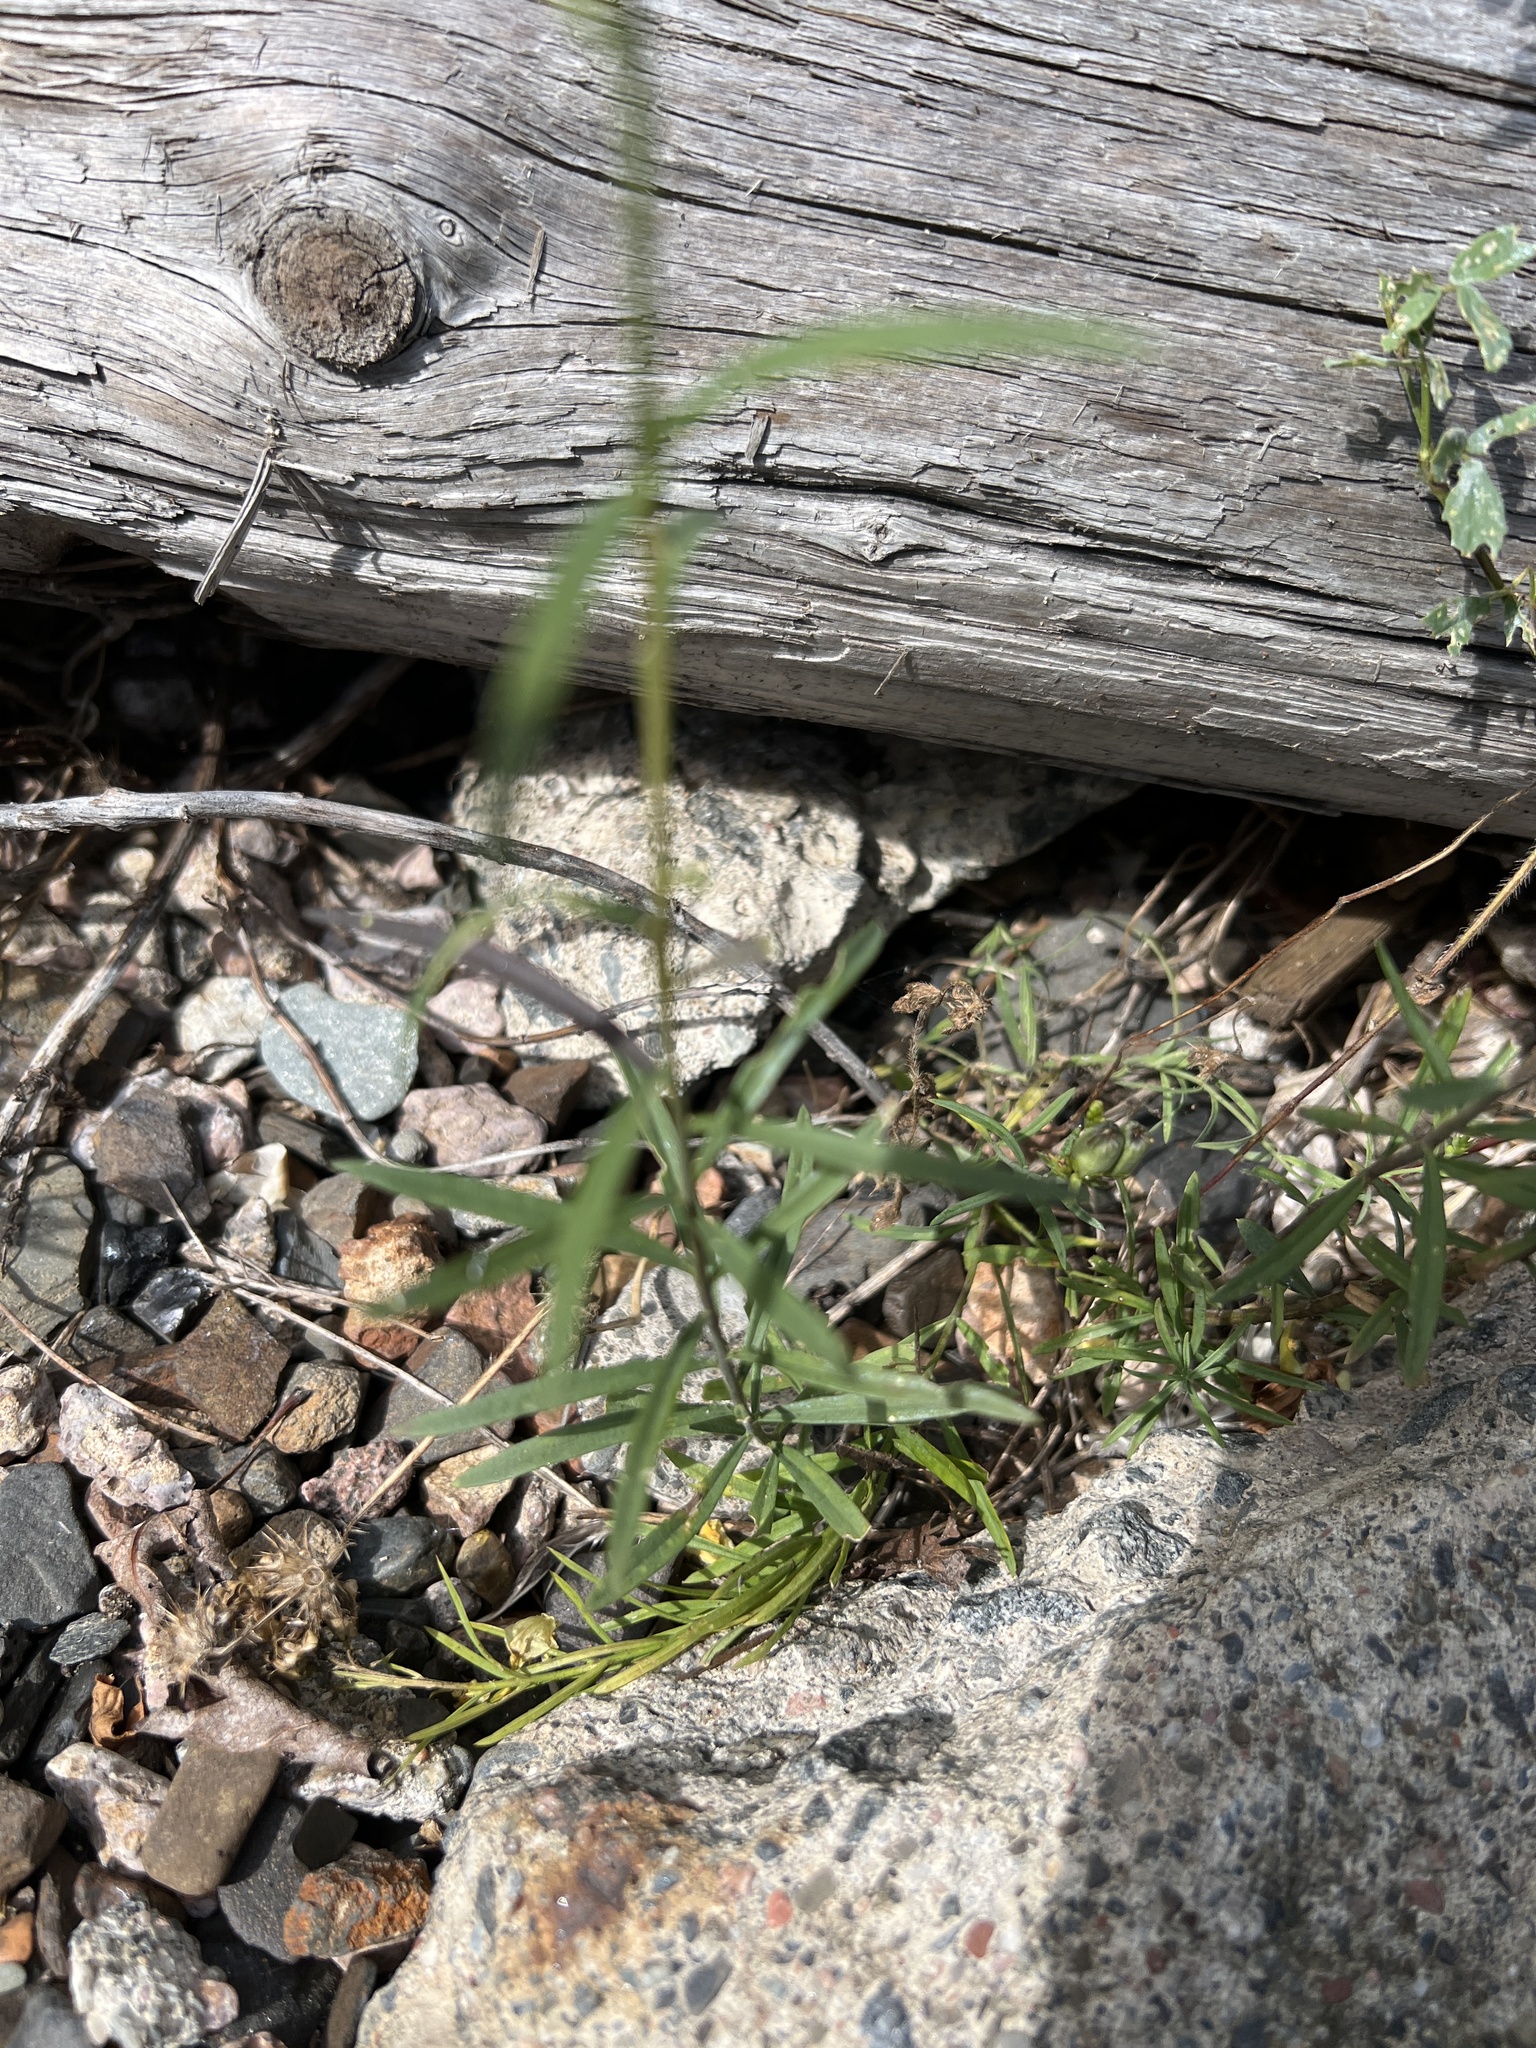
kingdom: Plantae
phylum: Tracheophyta
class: Magnoliopsida
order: Lamiales
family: Plantaginaceae
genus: Linaria
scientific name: Linaria vulgaris
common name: Butter and eggs
